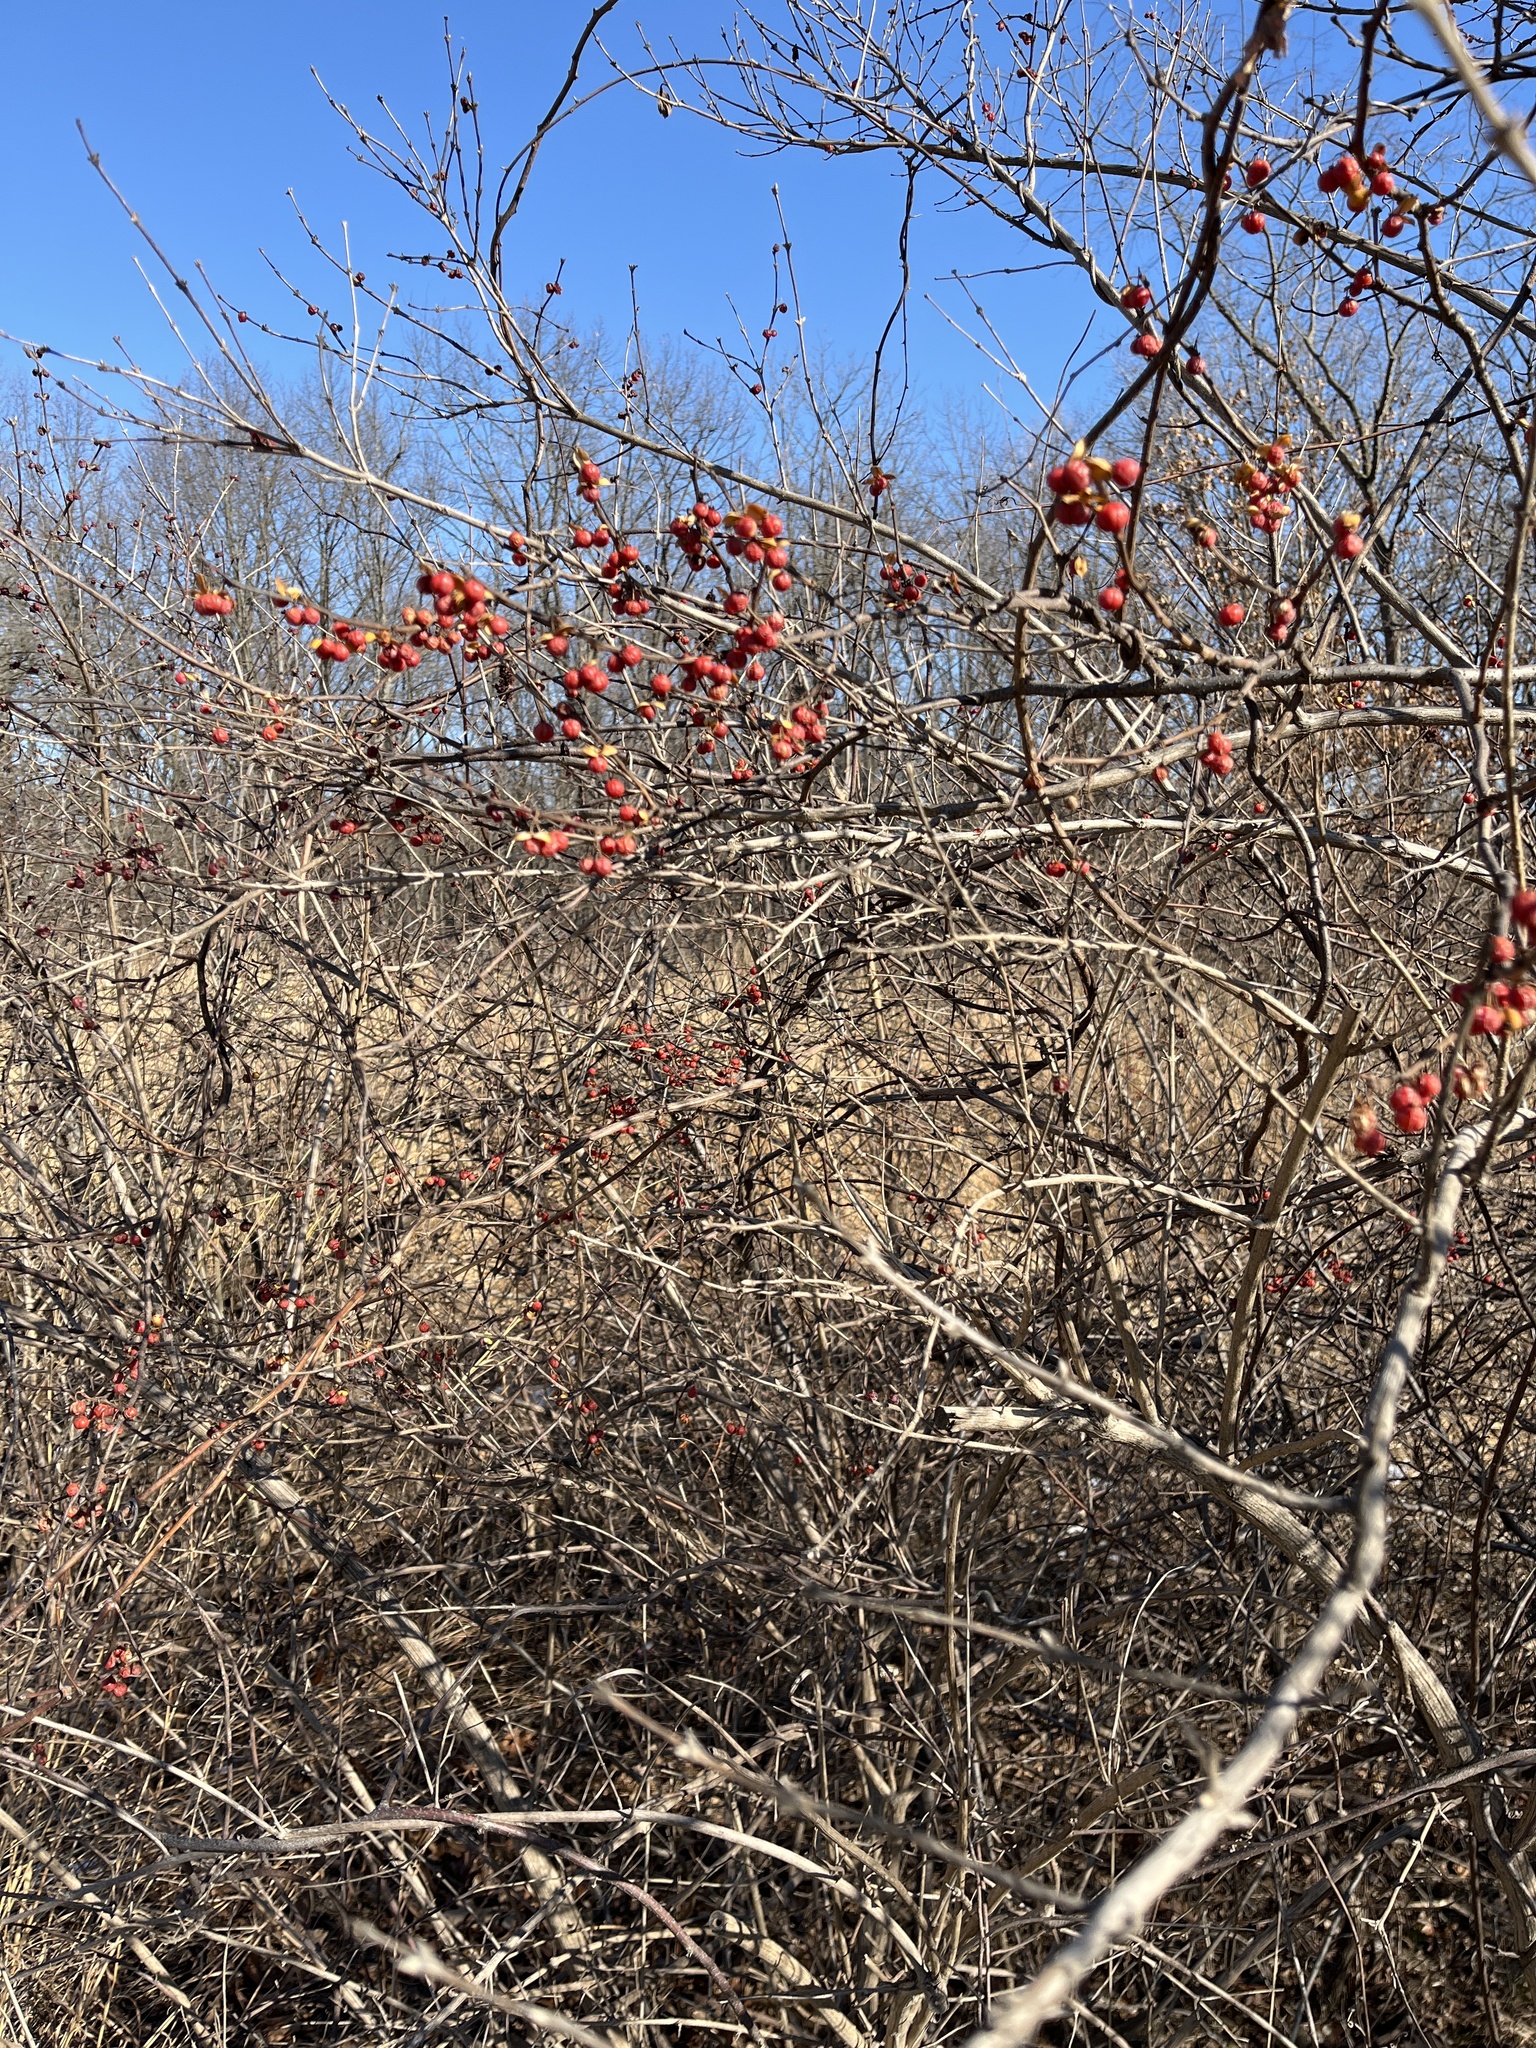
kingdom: Plantae
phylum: Tracheophyta
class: Magnoliopsida
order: Celastrales
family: Celastraceae
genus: Celastrus
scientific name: Celastrus orbiculatus
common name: Oriental bittersweet
